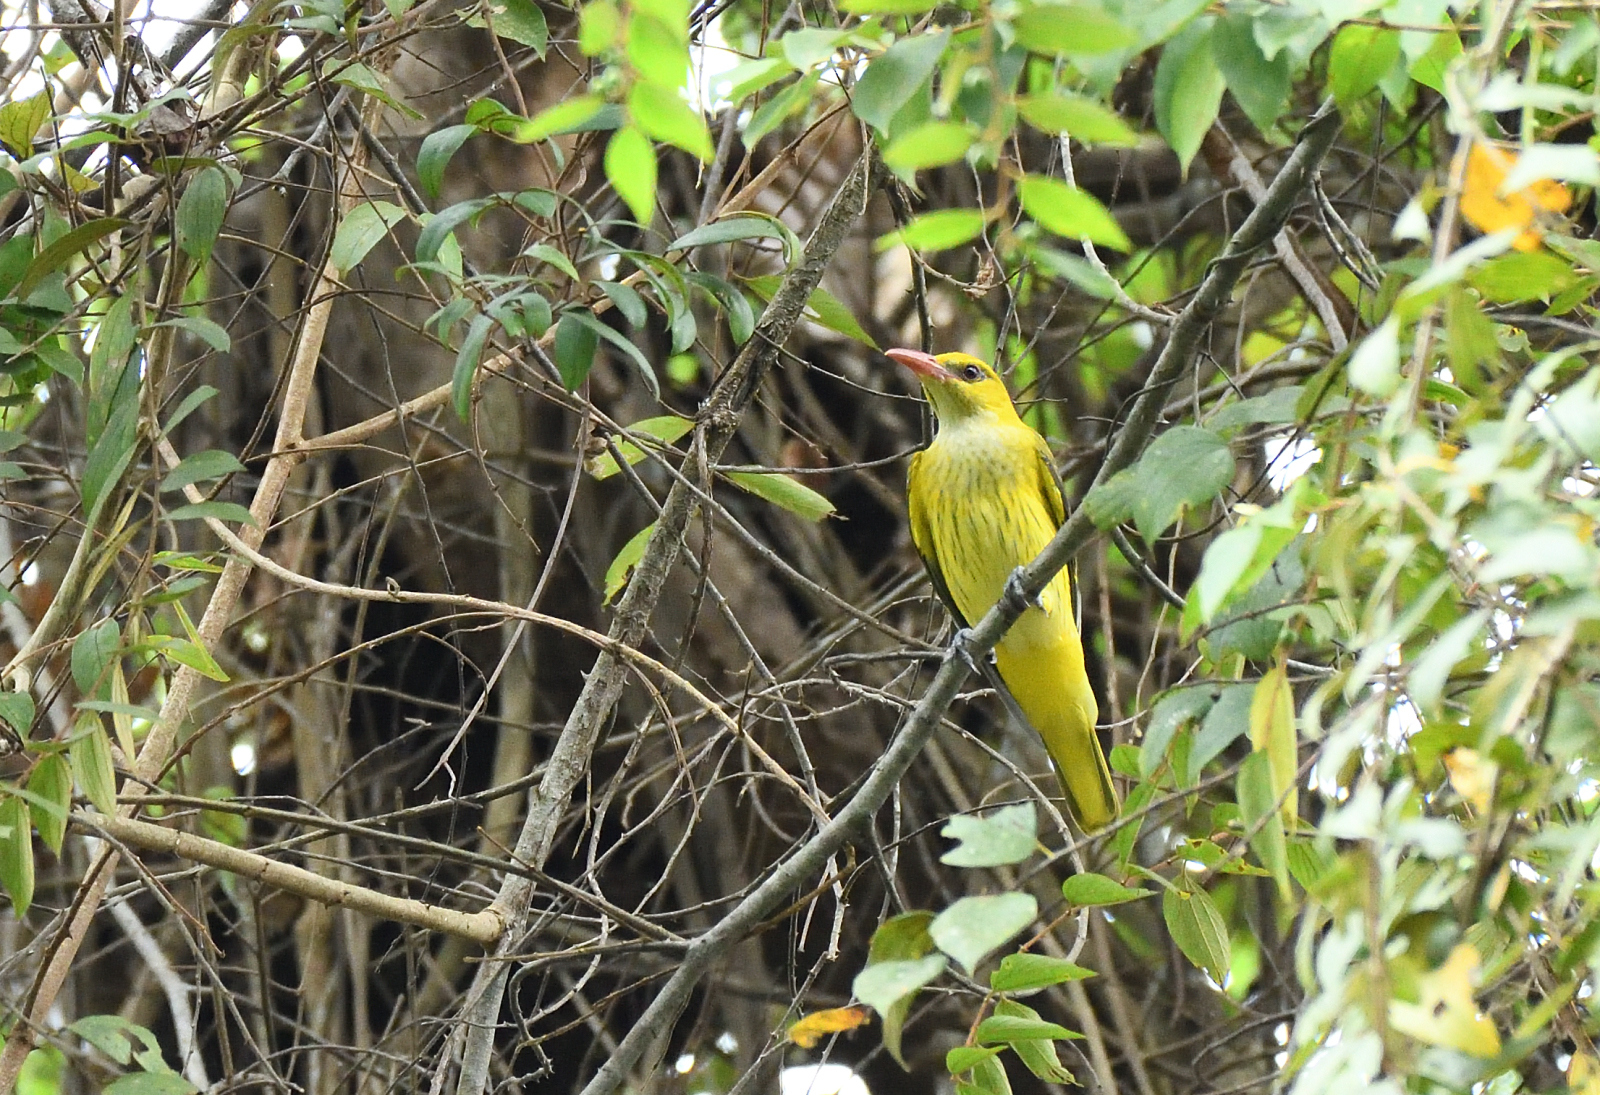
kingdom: Animalia
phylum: Chordata
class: Aves
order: Passeriformes
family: Oriolidae
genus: Oriolus
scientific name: Oriolus kundoo
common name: Indian golden oriole
